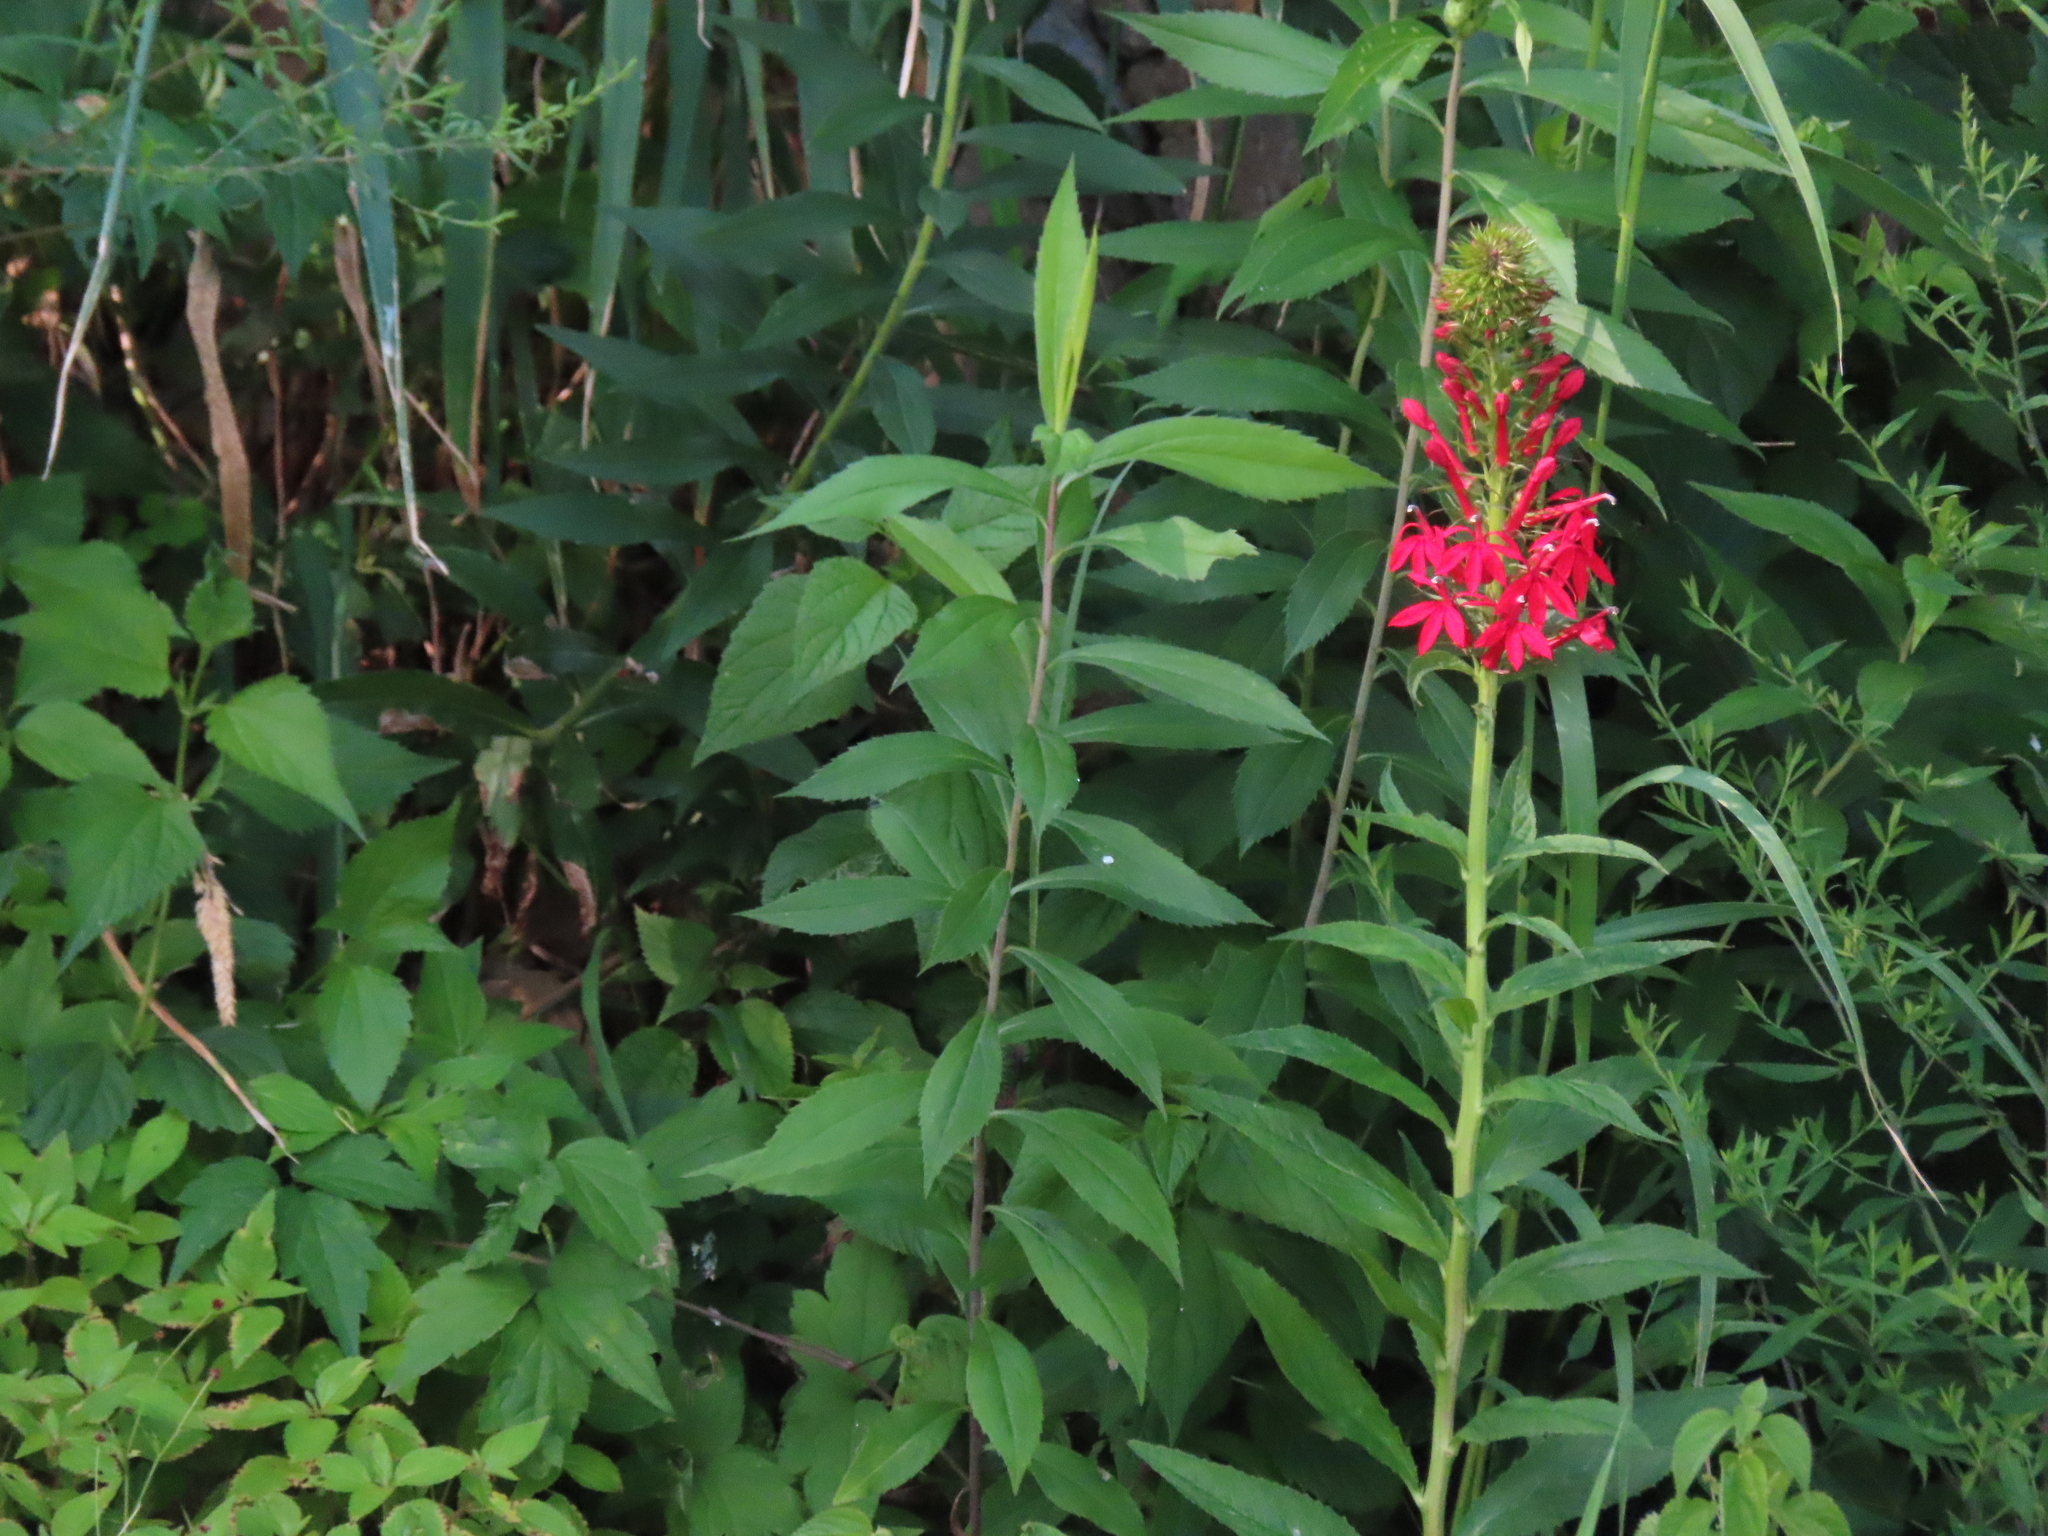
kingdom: Plantae
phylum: Tracheophyta
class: Magnoliopsida
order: Asterales
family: Campanulaceae
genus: Lobelia
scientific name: Lobelia cardinalis
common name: Cardinal flower
